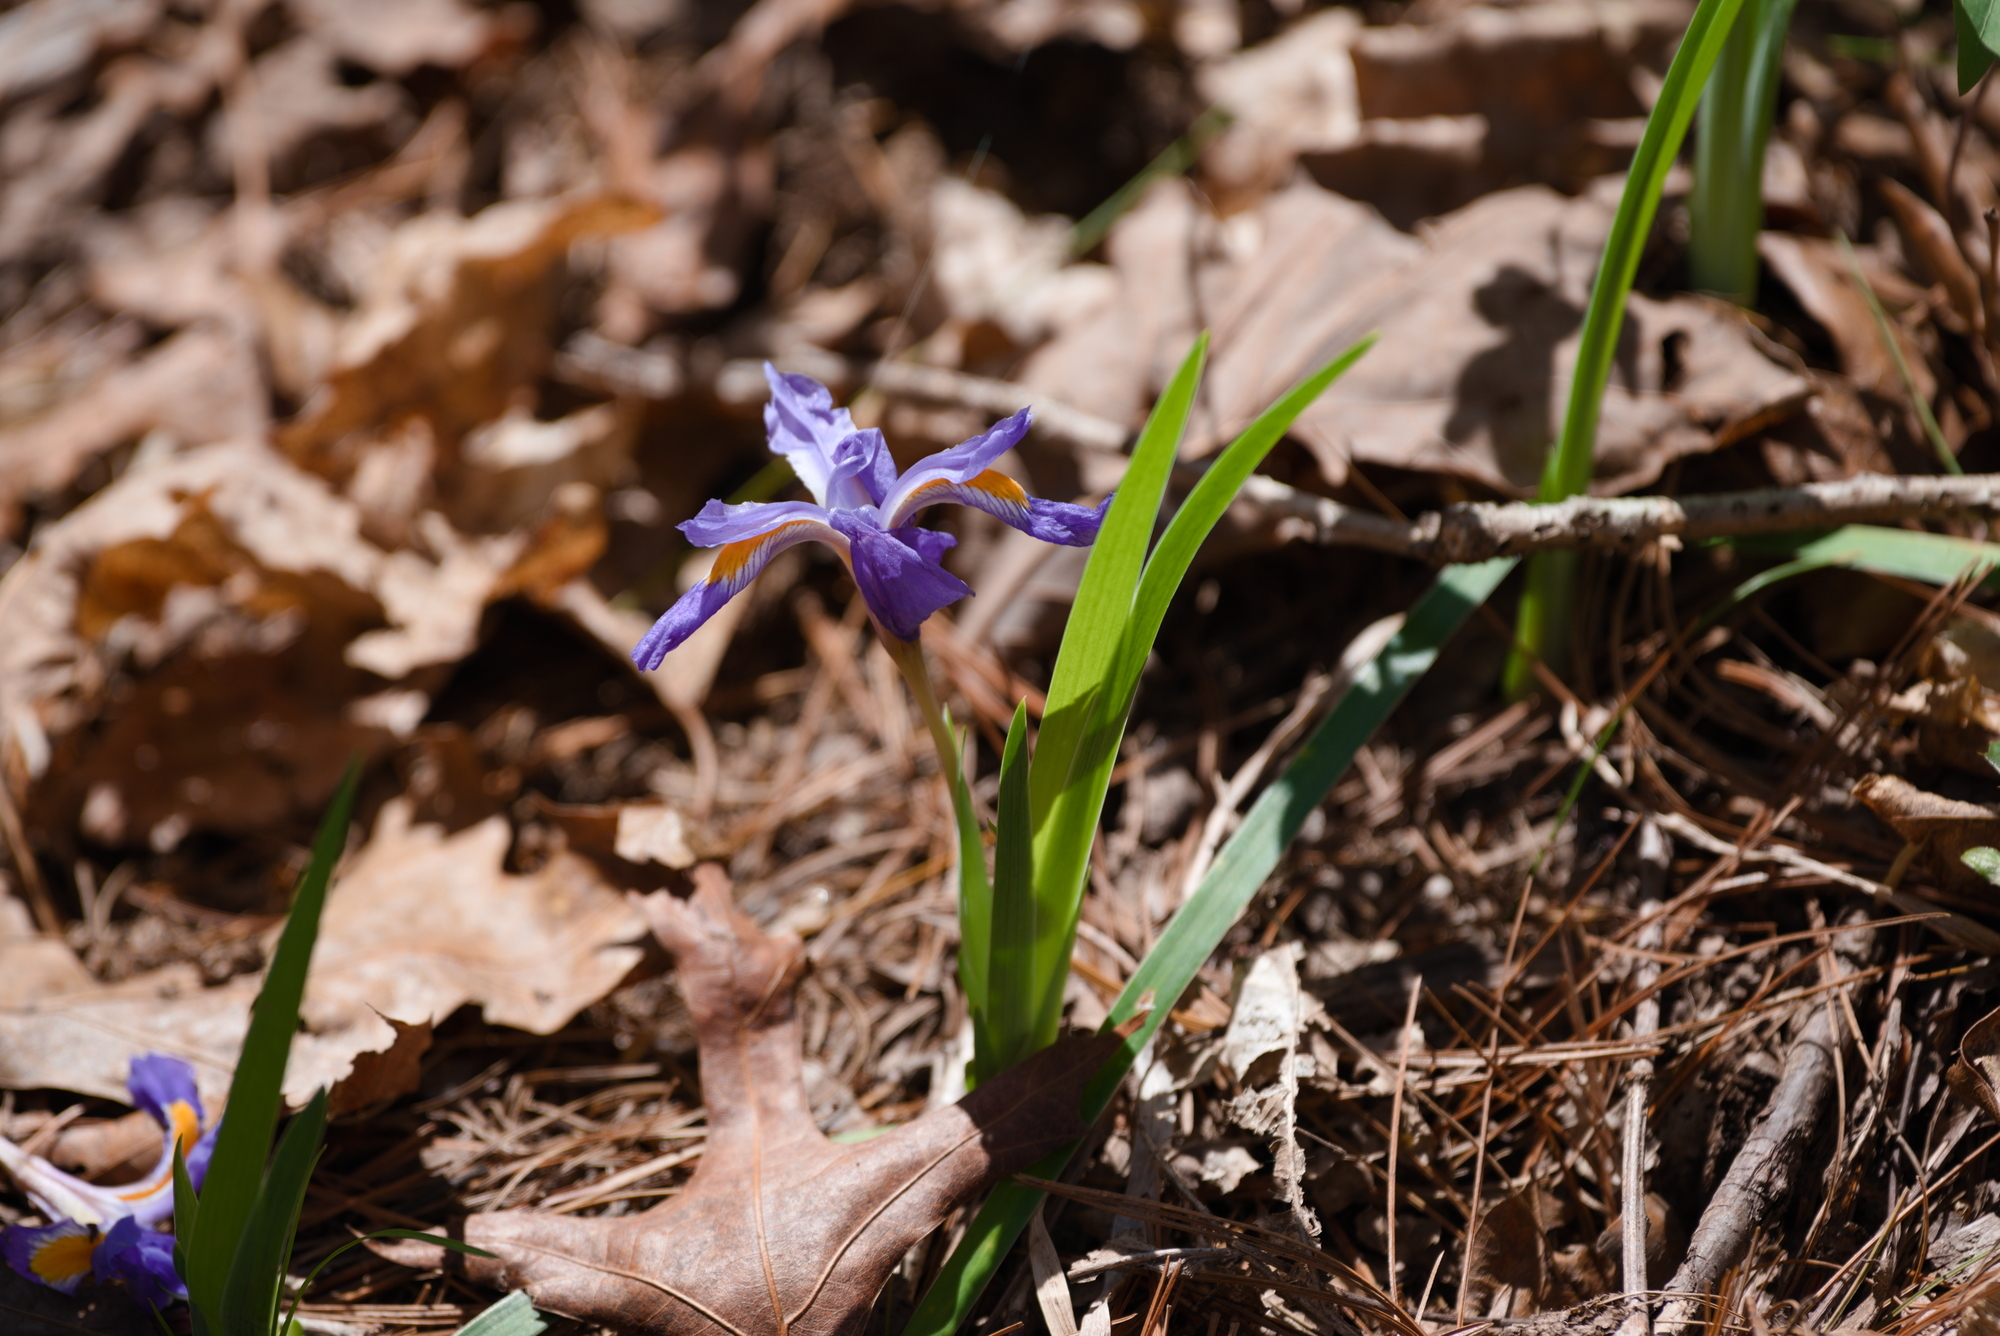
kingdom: Plantae
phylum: Tracheophyta
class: Liliopsida
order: Asparagales
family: Iridaceae
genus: Iris
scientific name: Iris cristata
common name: Crested iris
